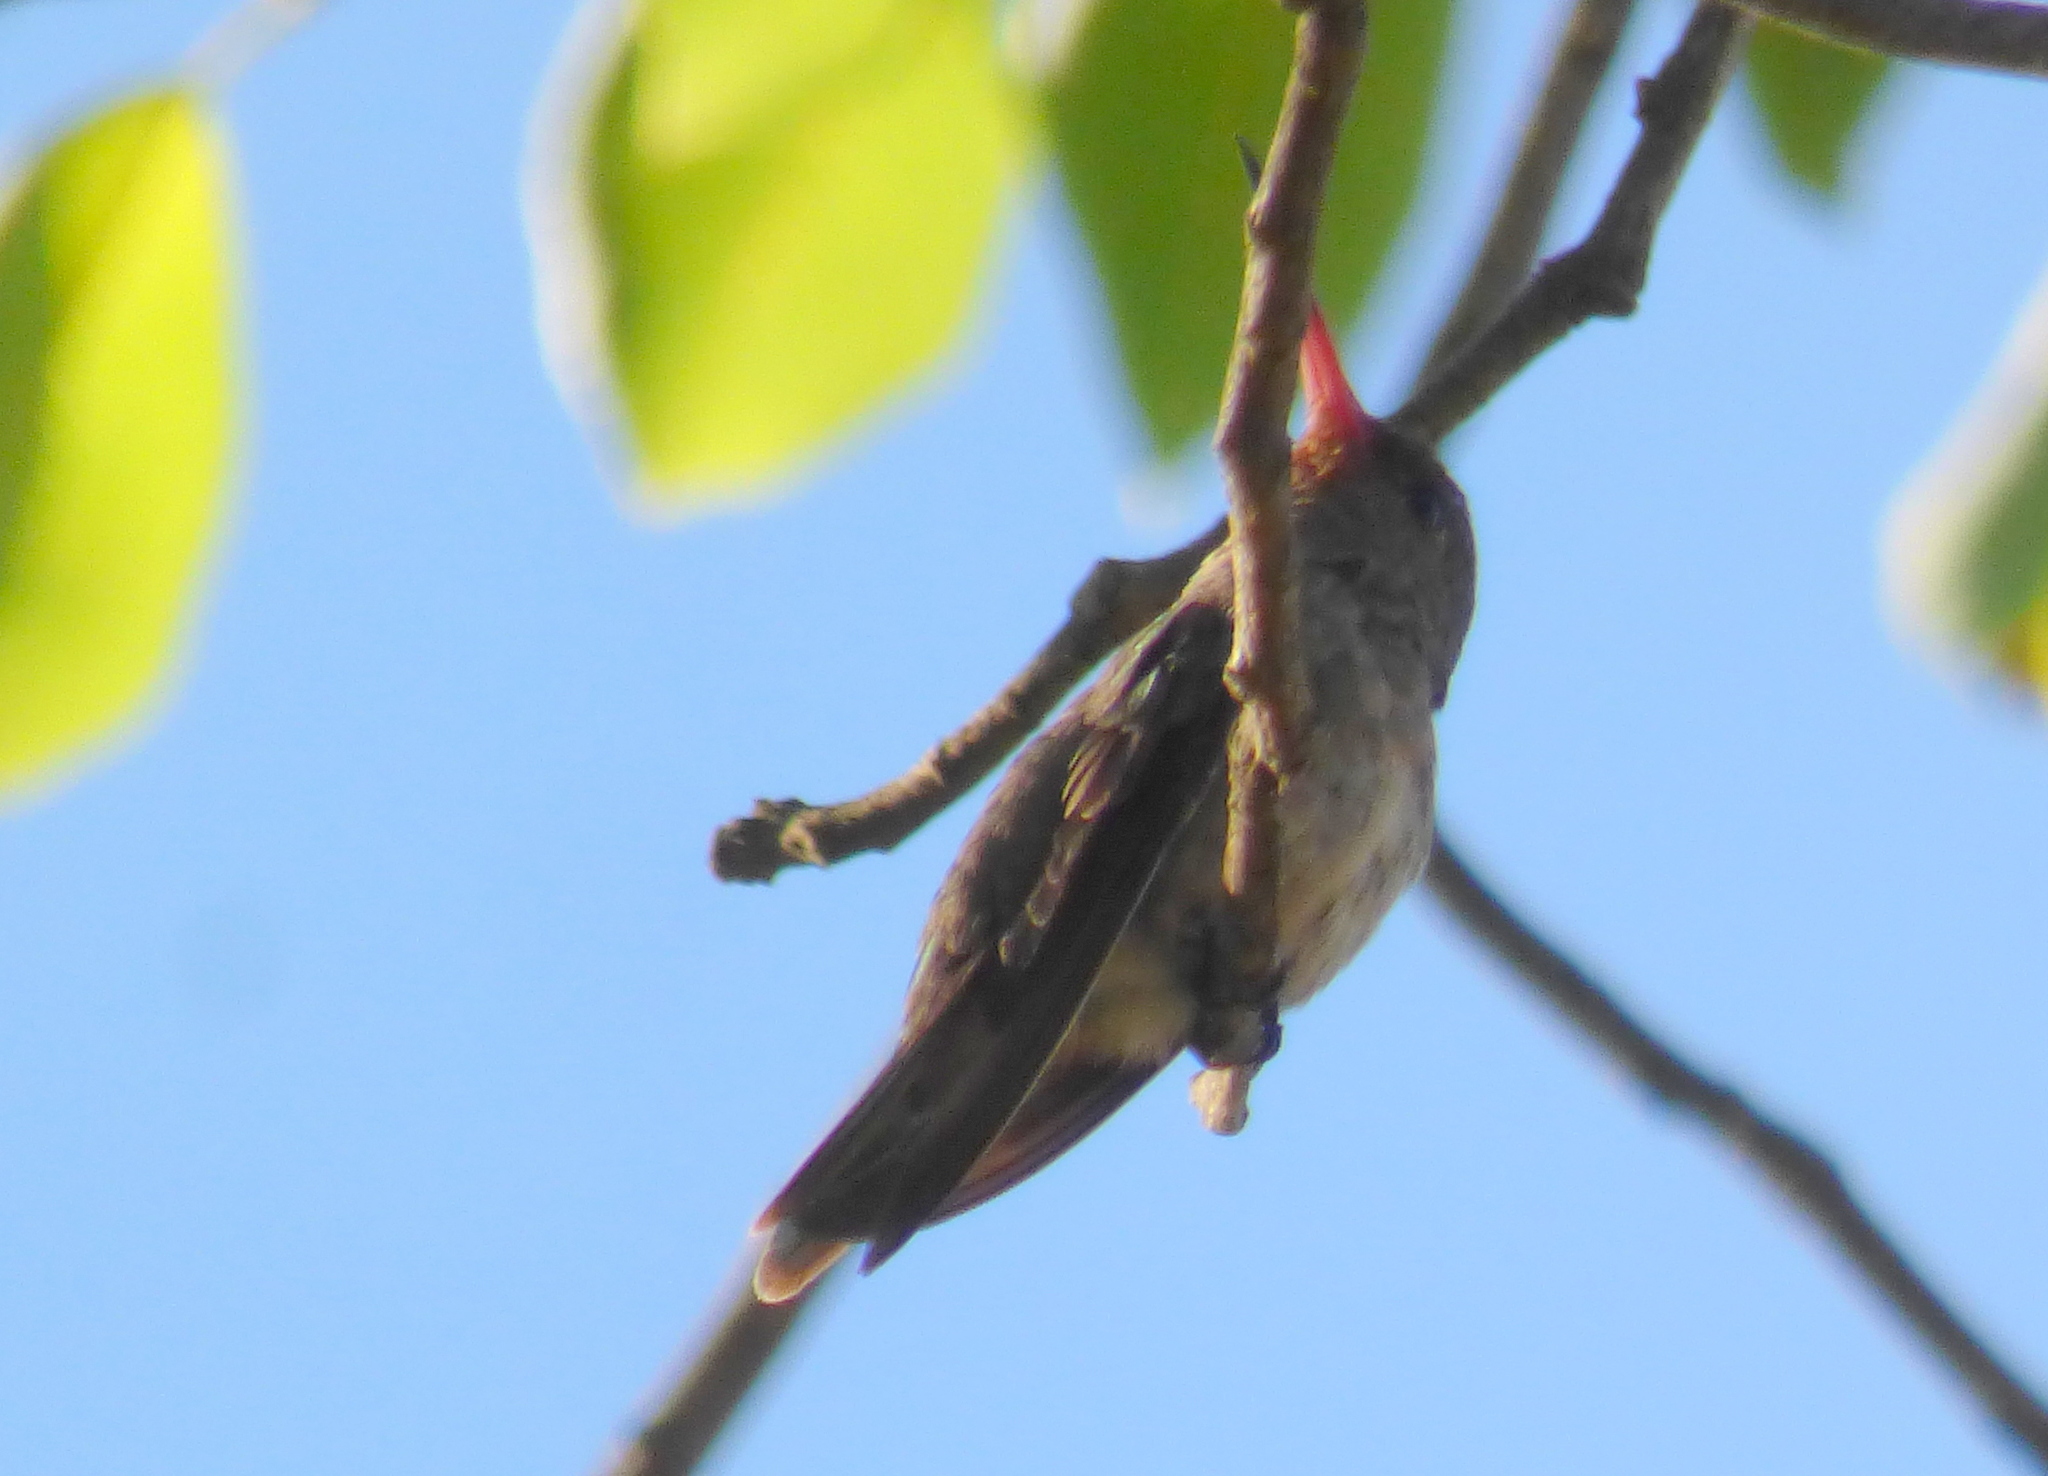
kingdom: Animalia
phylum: Chordata
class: Aves
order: Apodiformes
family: Trochilidae
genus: Hylocharis
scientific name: Hylocharis chrysura
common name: Gilded sapphire
